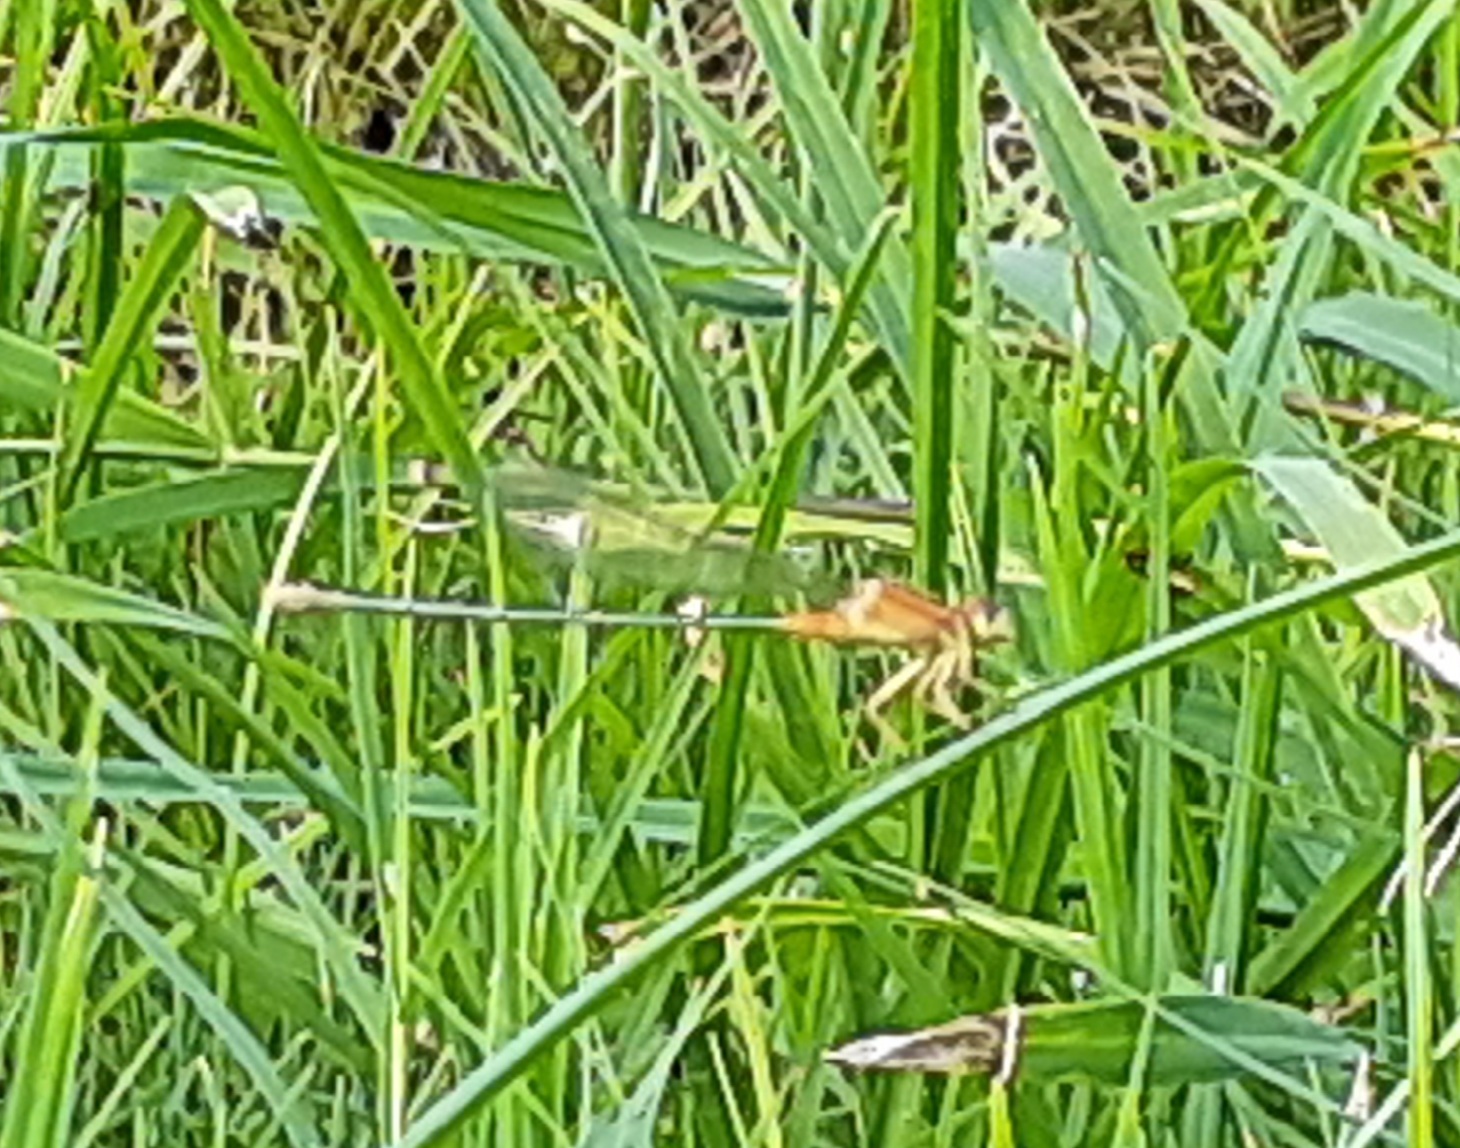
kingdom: Animalia
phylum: Arthropoda
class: Insecta
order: Odonata
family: Coenagrionidae
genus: Ischnura
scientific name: Ischnura senegalensis
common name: Tropical bluetail
